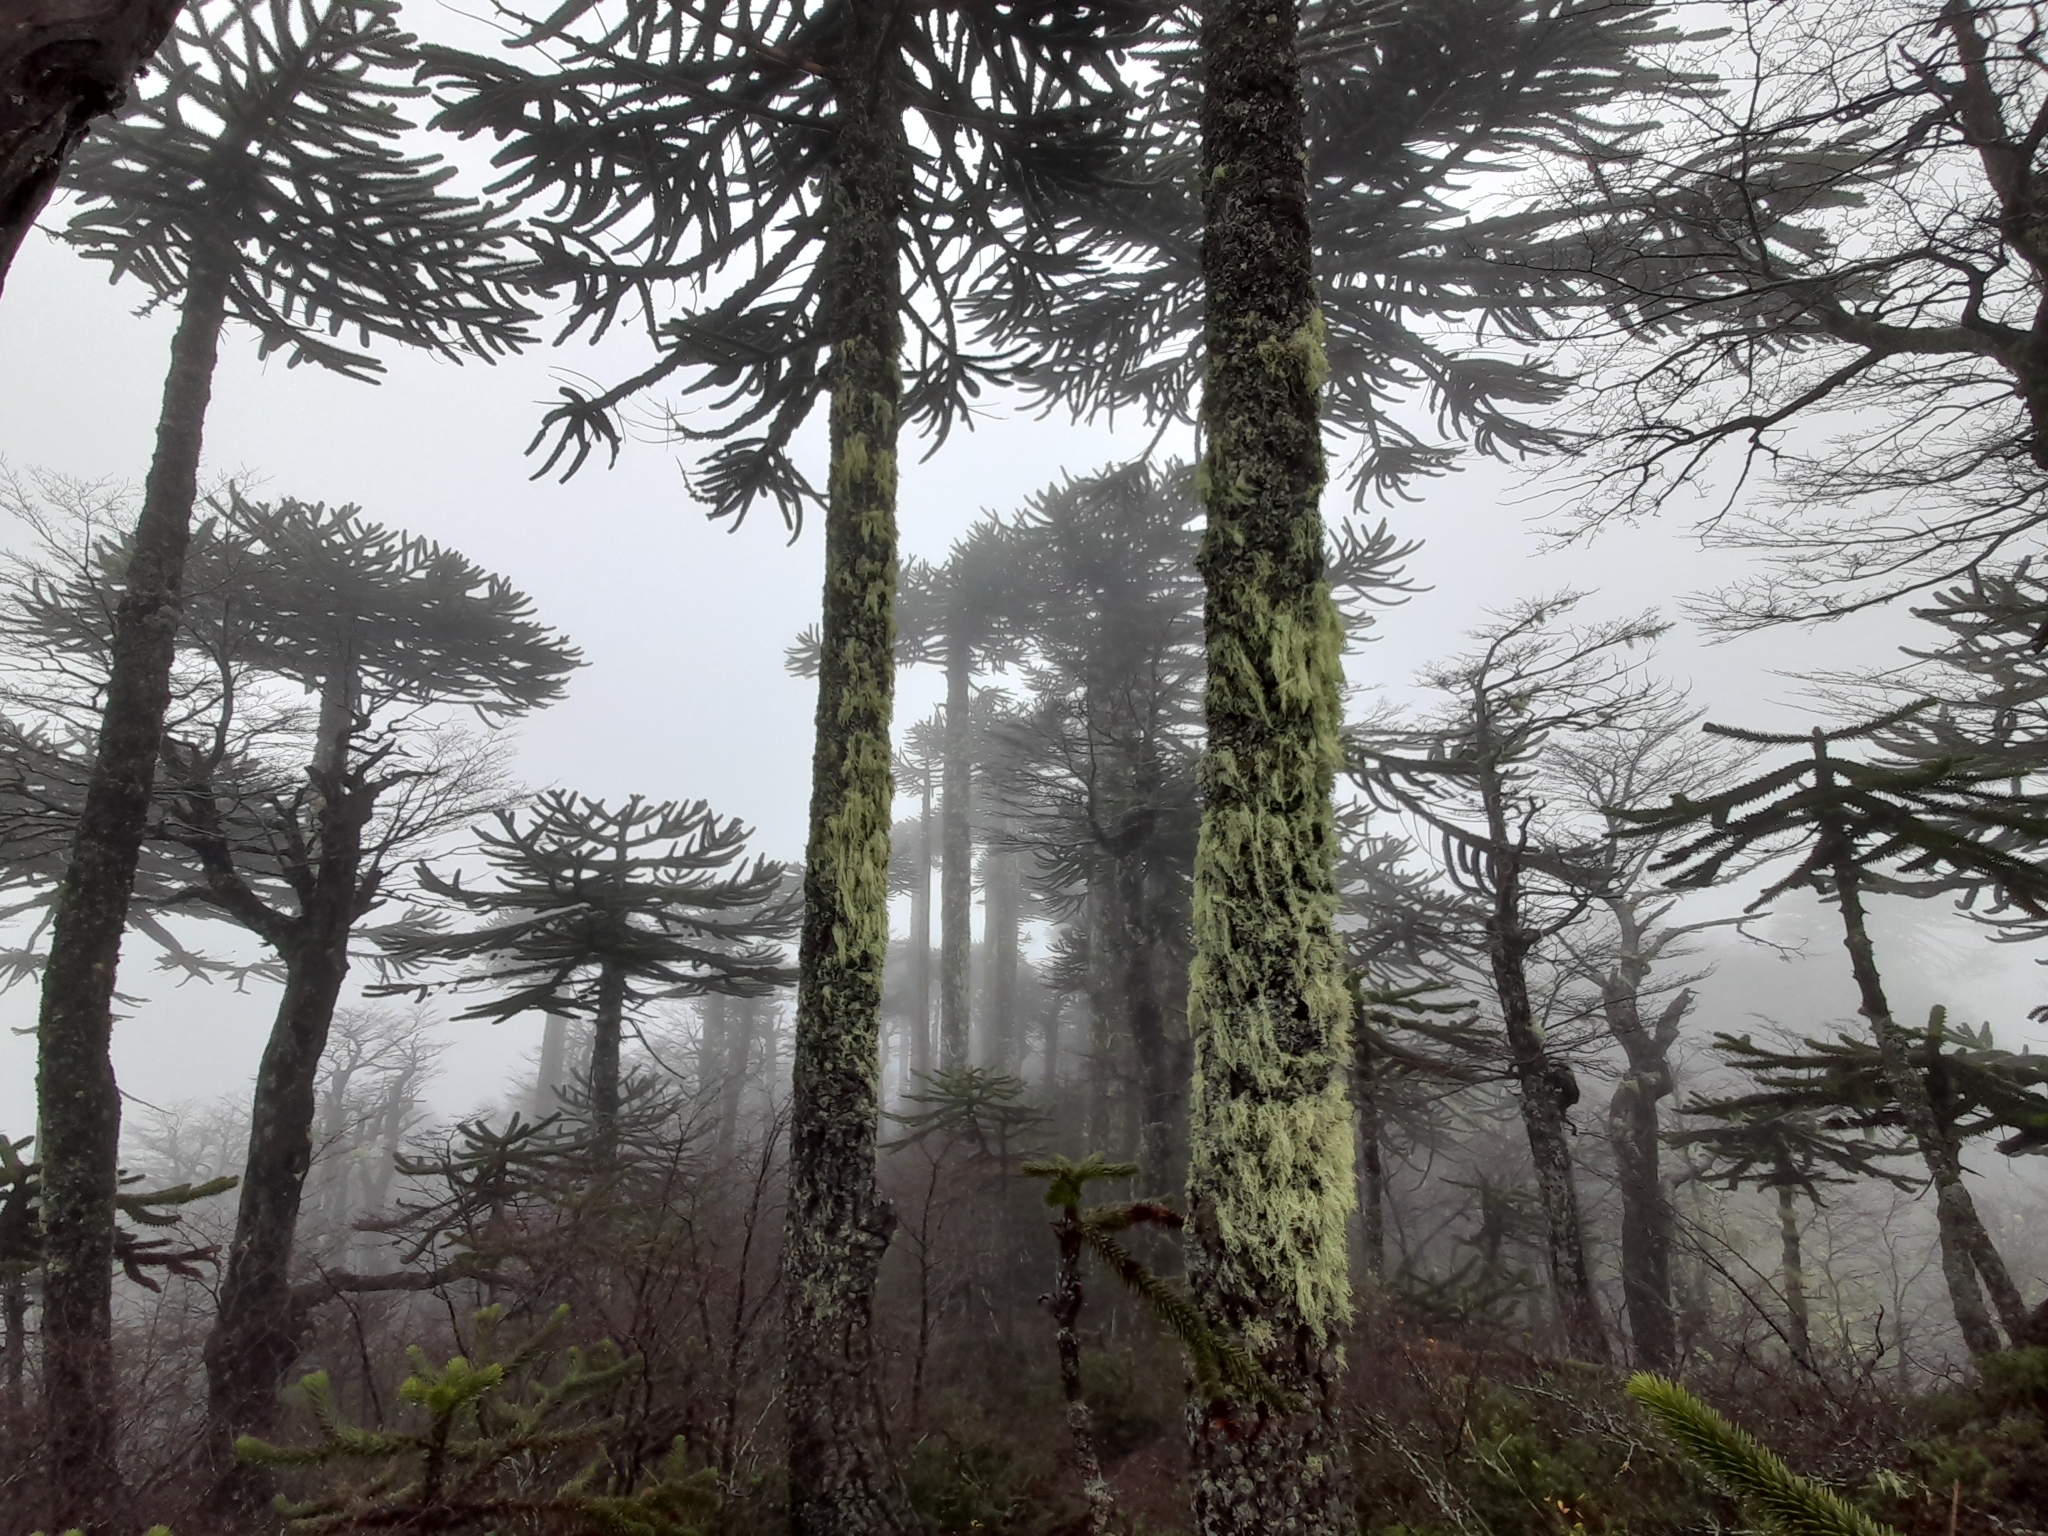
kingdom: Plantae
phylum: Tracheophyta
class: Pinopsida
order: Pinales
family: Araucariaceae
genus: Araucaria
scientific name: Araucaria araucana
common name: Monkey-puzzle
